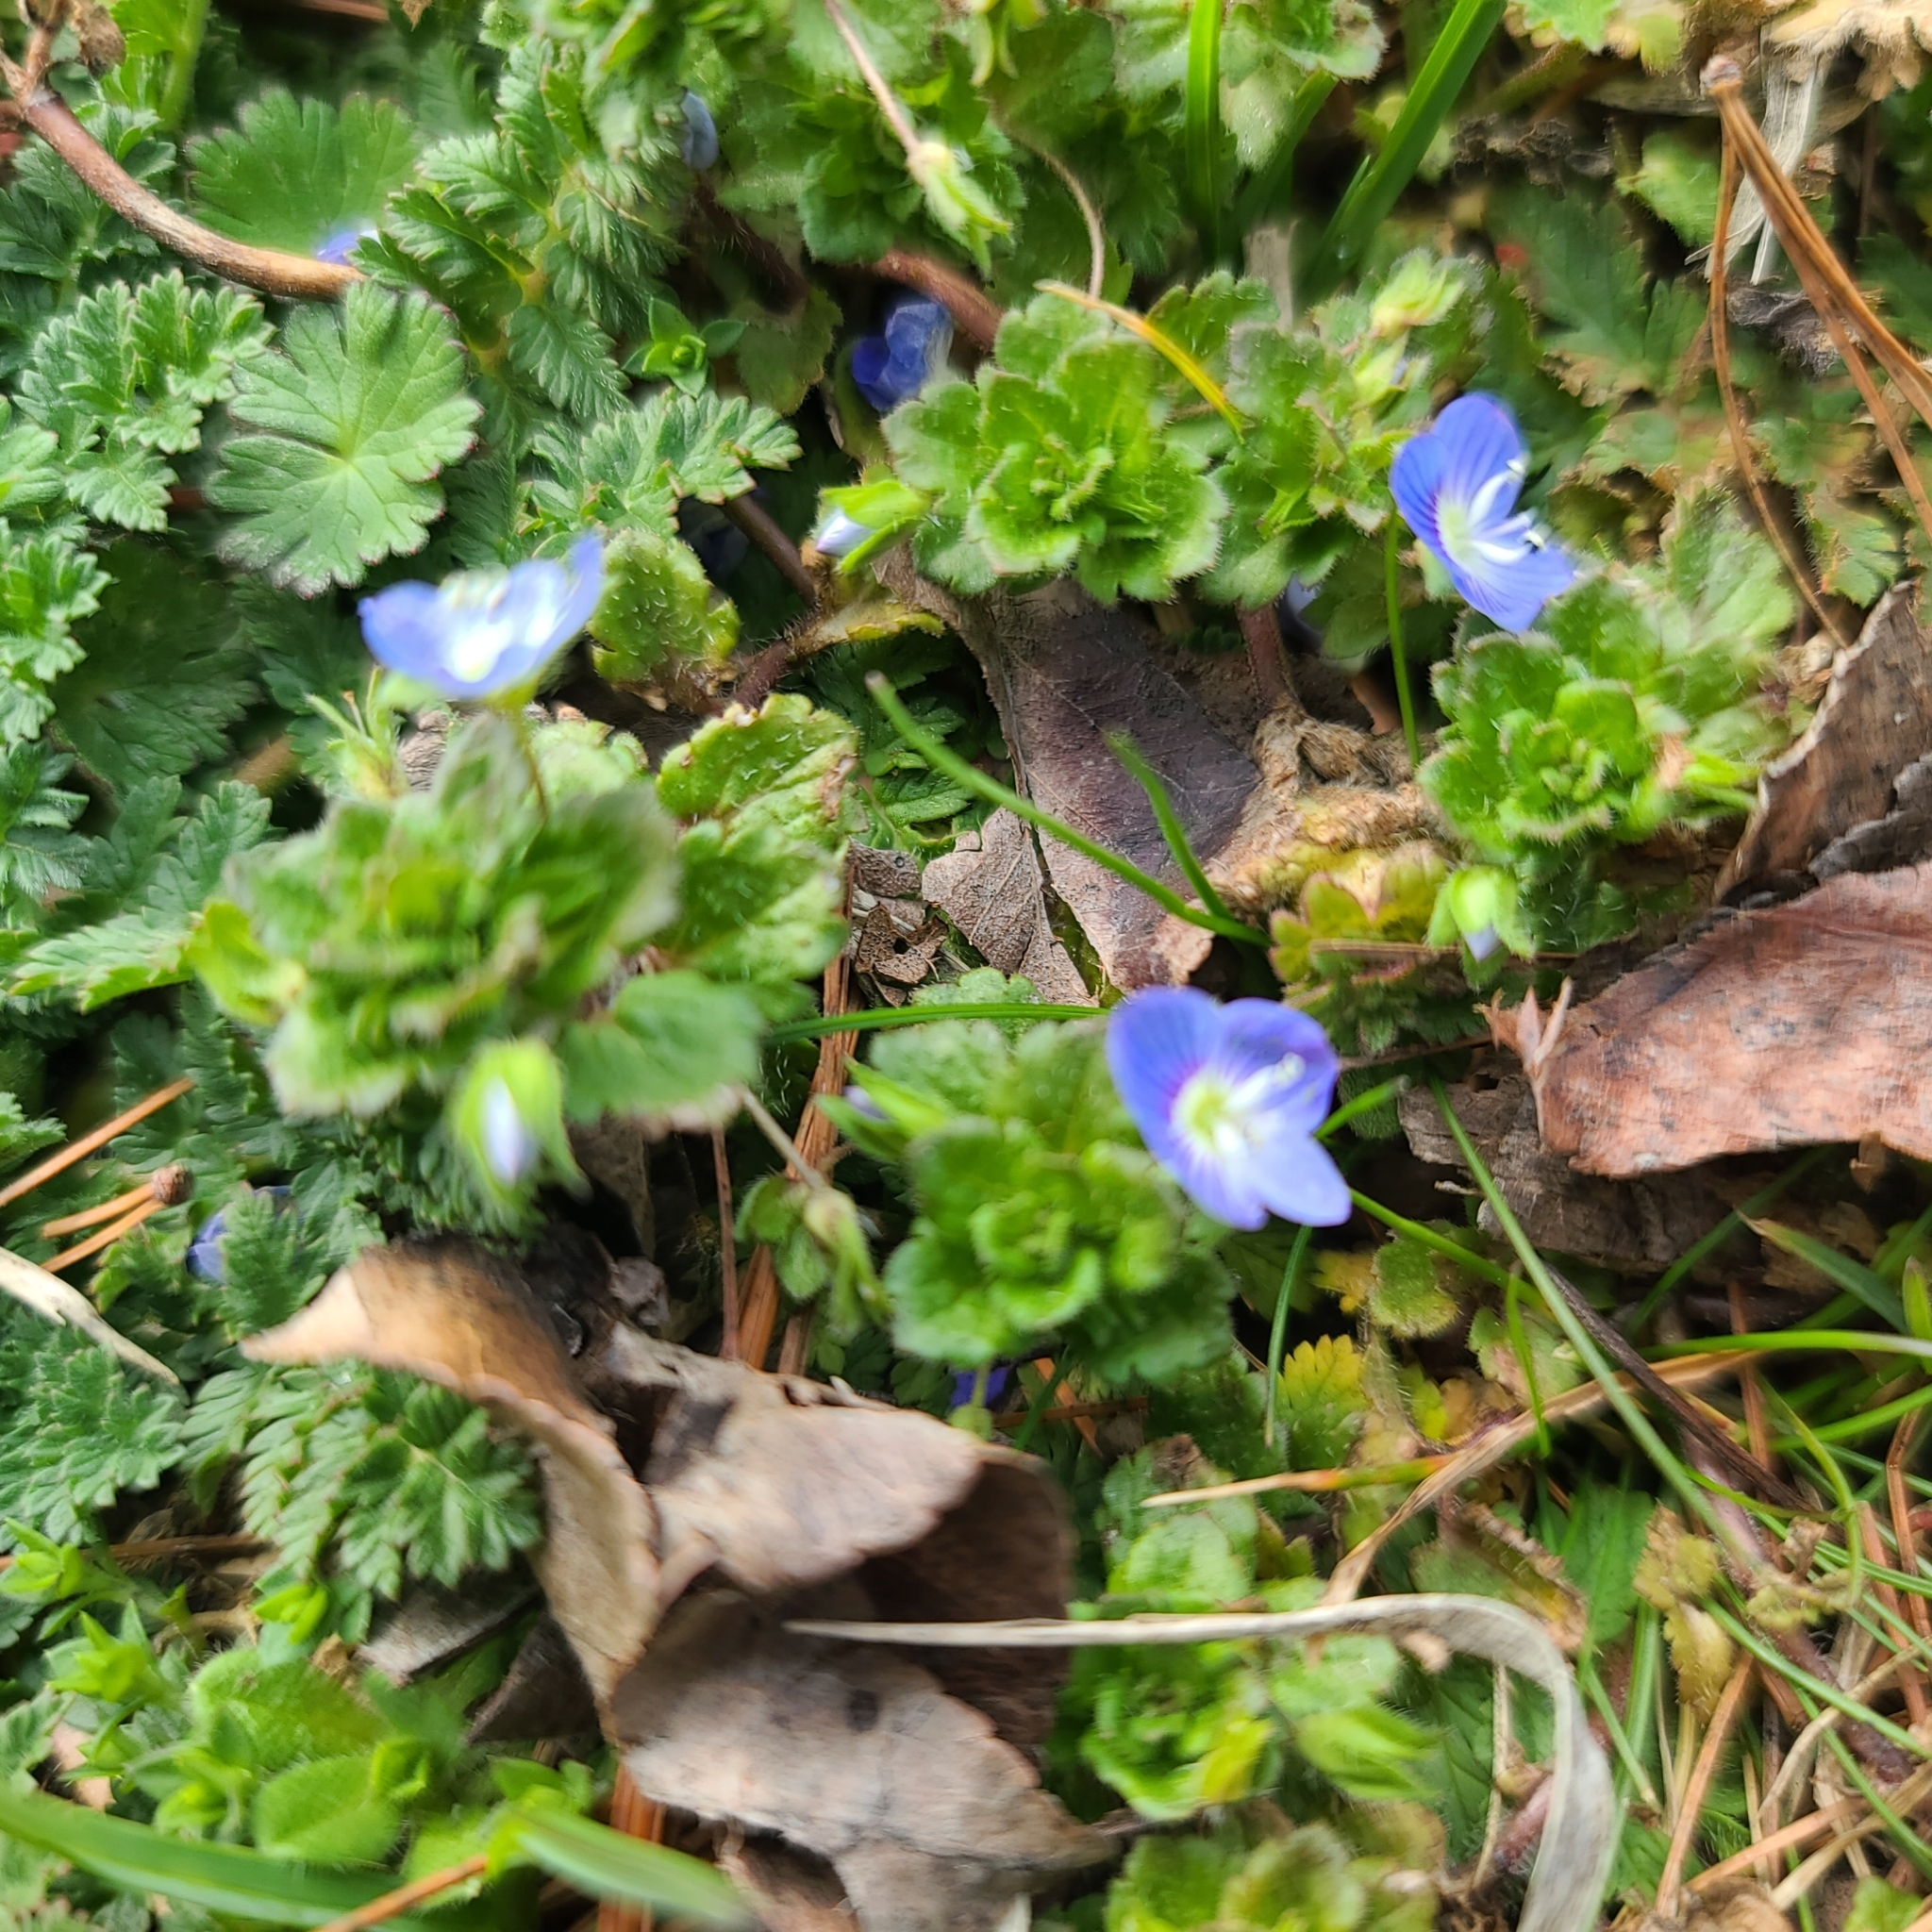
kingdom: Plantae
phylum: Tracheophyta
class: Magnoliopsida
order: Lamiales
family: Plantaginaceae
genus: Veronica
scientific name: Veronica persica
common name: Common field-speedwell
